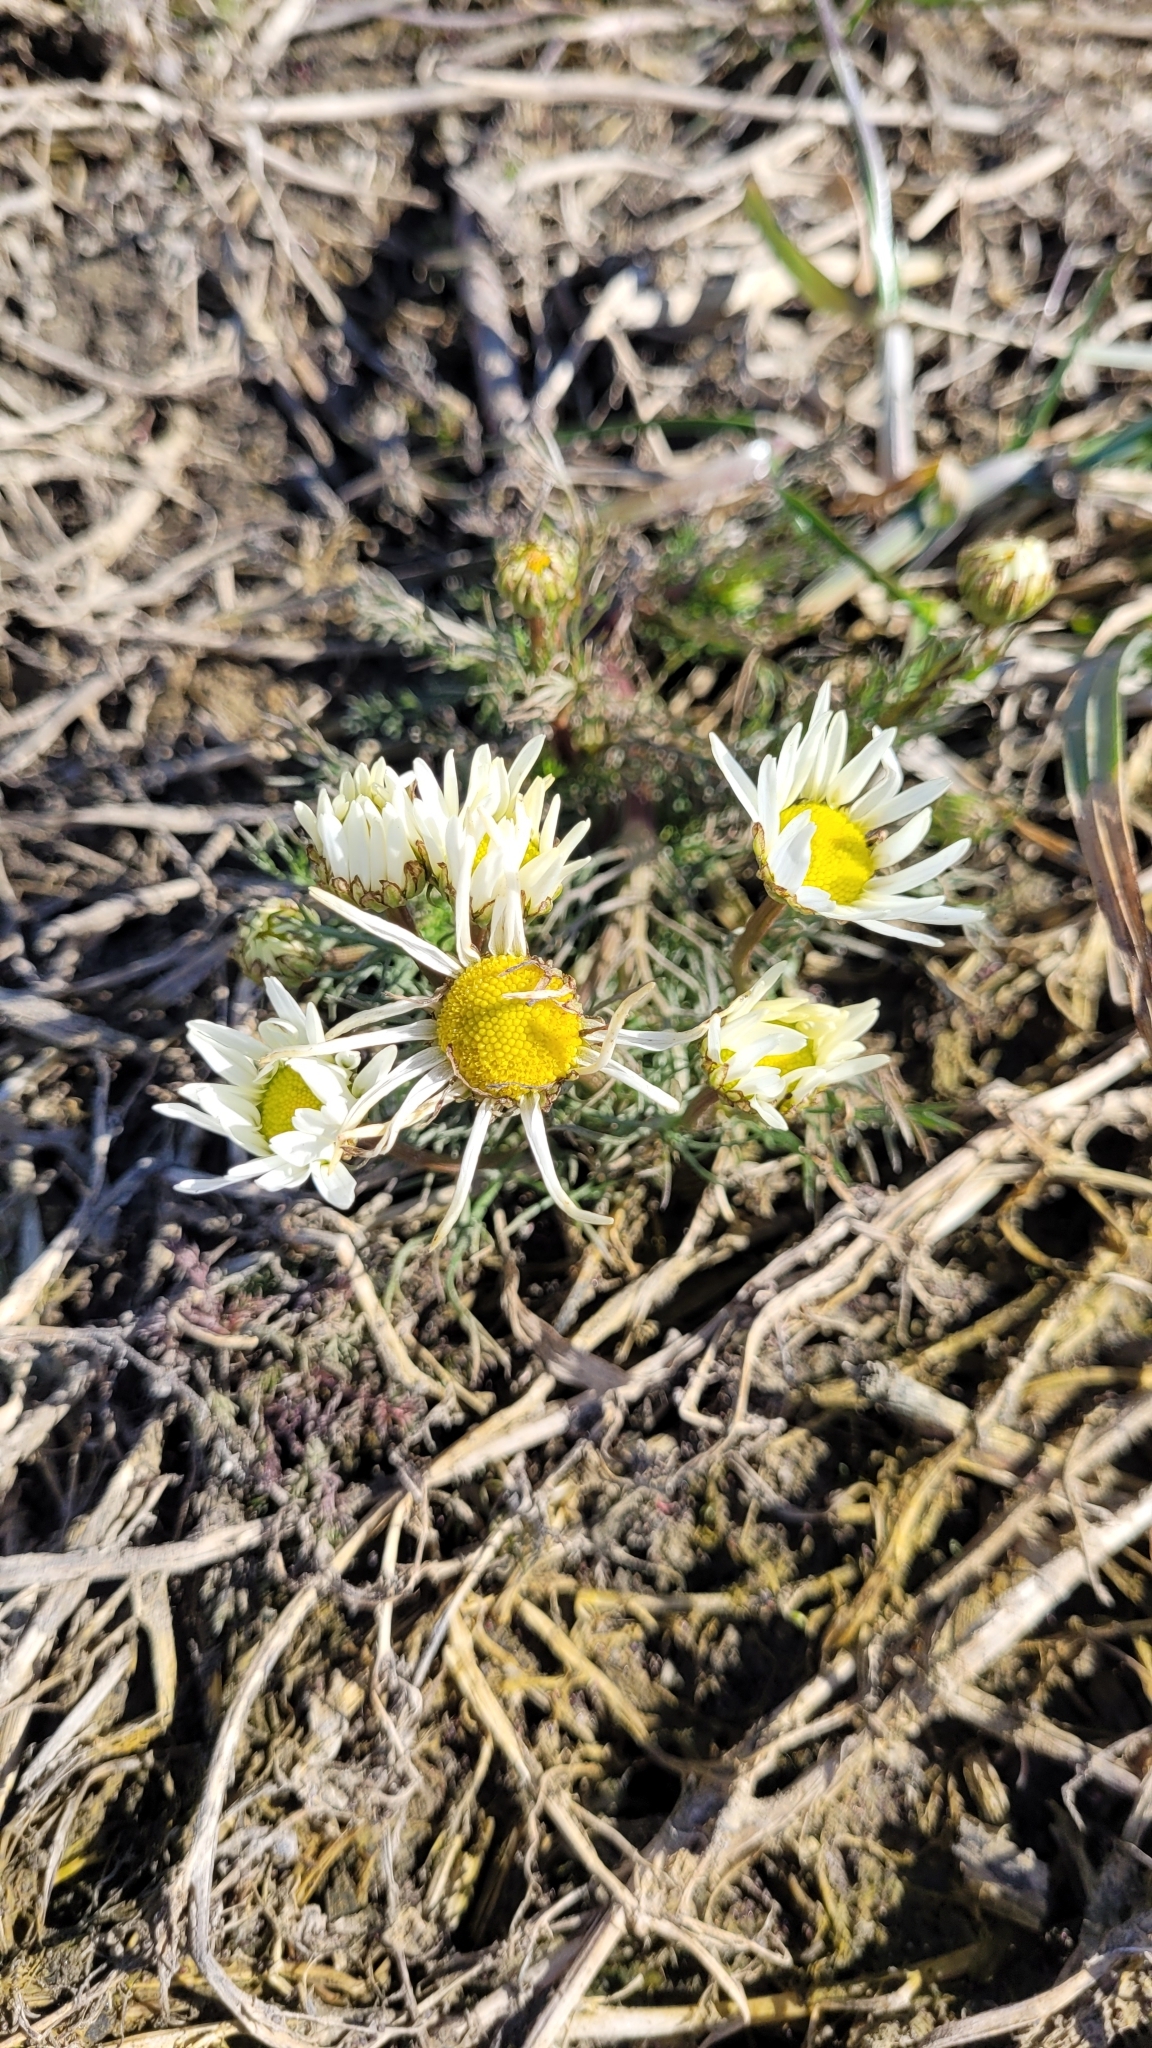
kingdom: Plantae
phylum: Tracheophyta
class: Magnoliopsida
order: Asterales
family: Asteraceae
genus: Tripleurospermum
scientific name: Tripleurospermum inodorum
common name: Scentless mayweed
